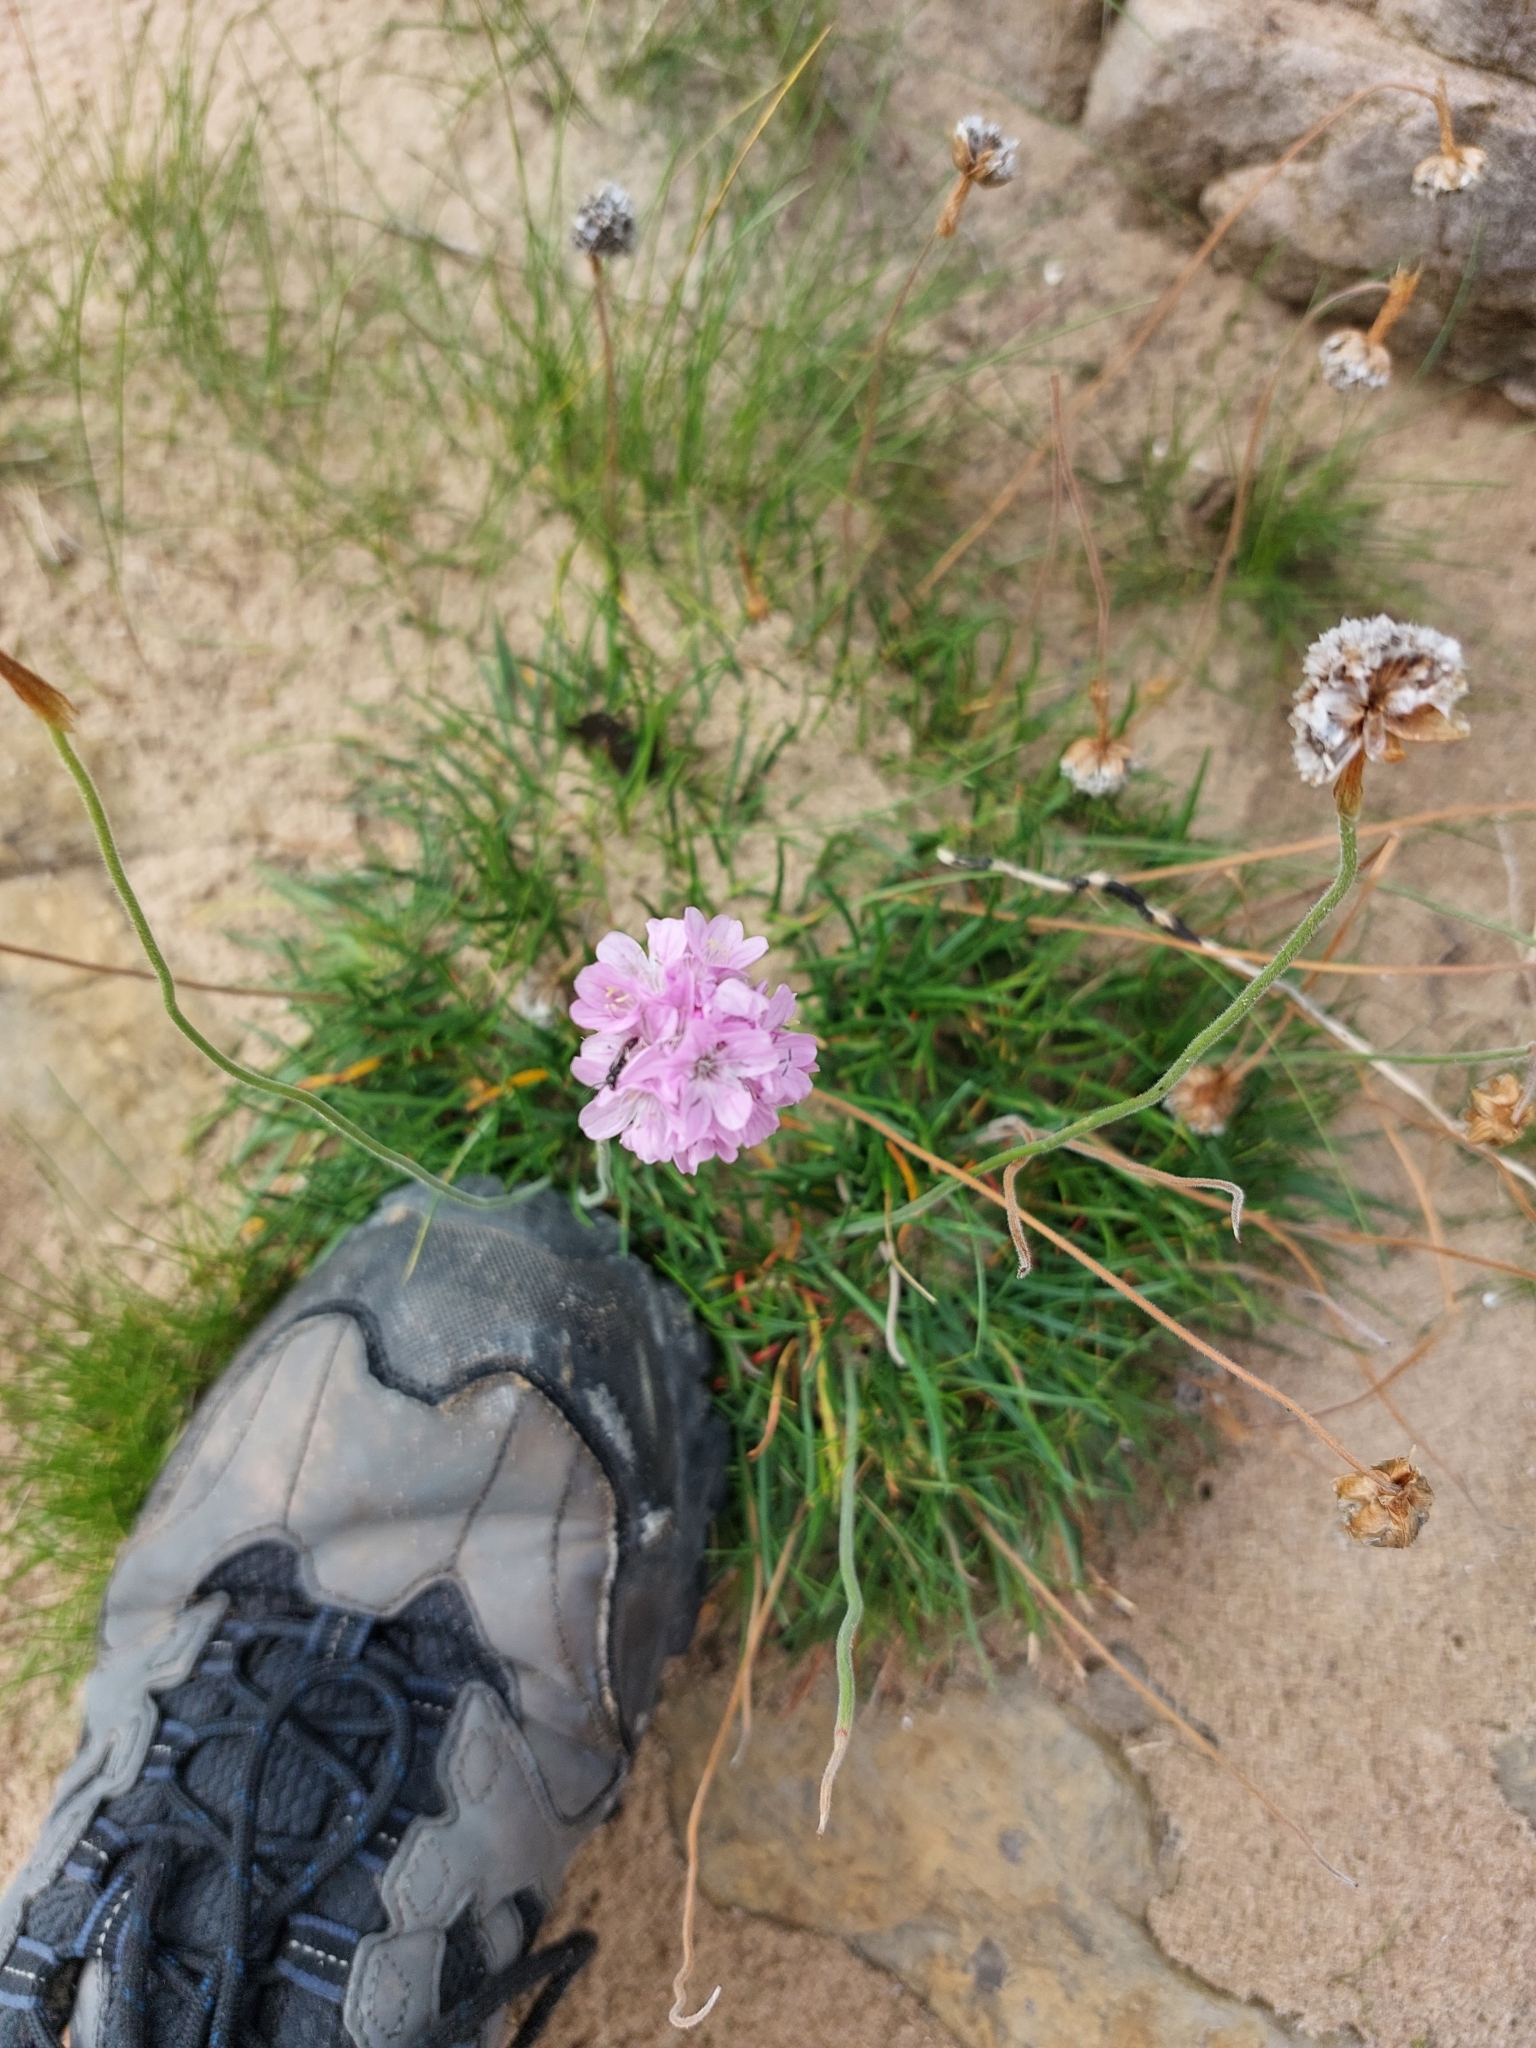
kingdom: Plantae
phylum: Tracheophyta
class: Magnoliopsida
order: Caryophyllales
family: Plumbaginaceae
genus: Armeria
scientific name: Armeria maritima
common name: Thrift
